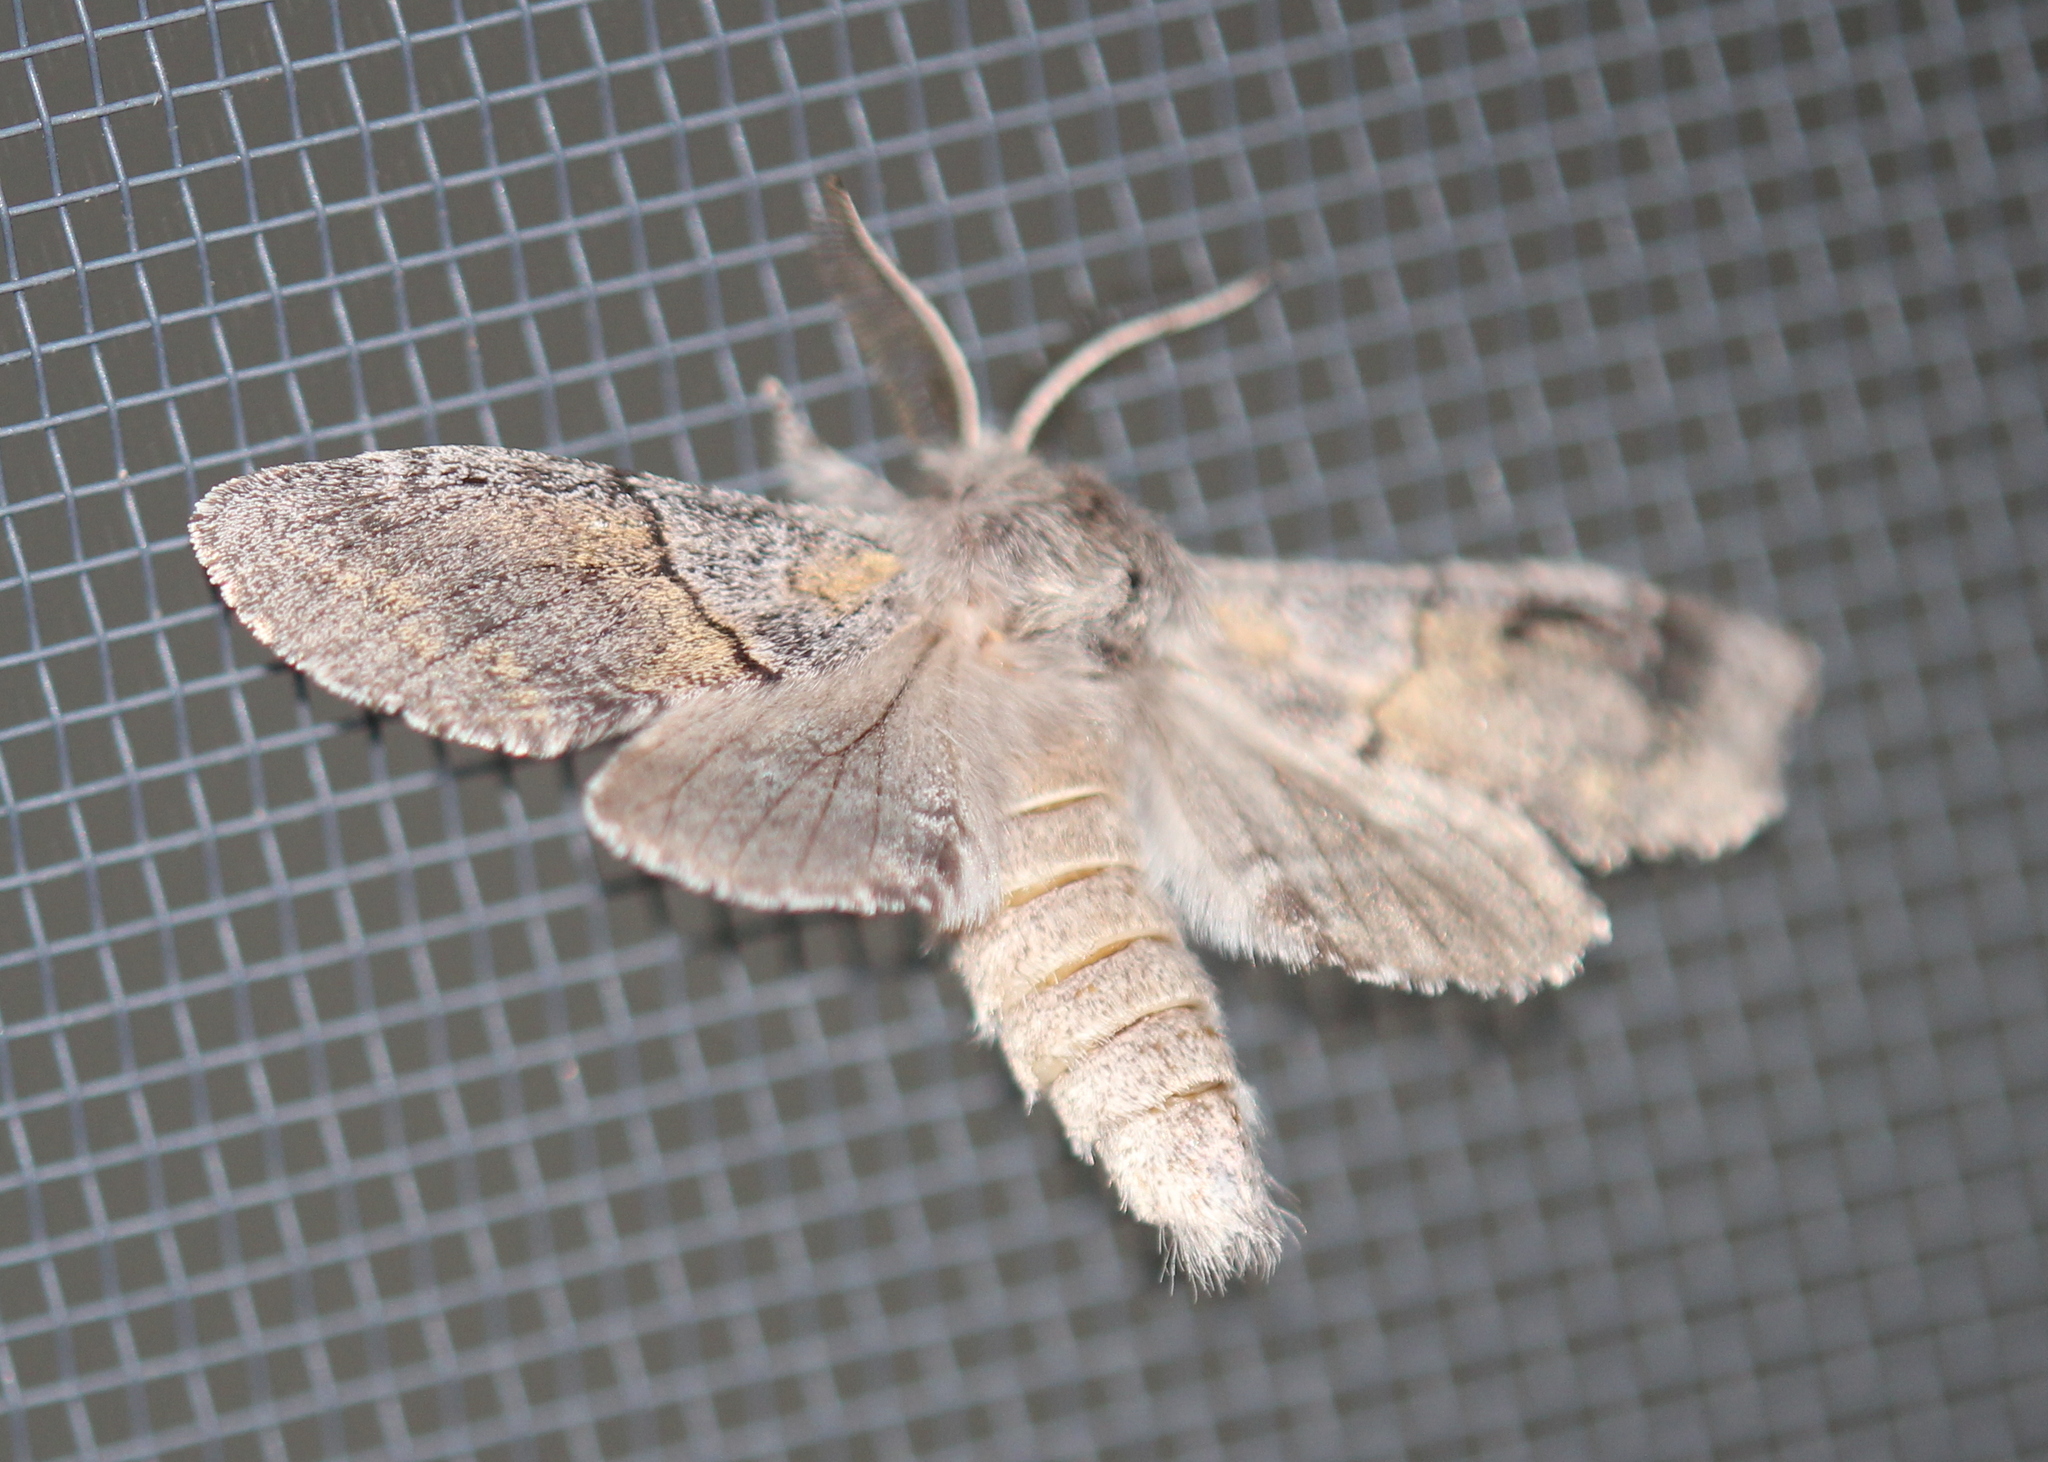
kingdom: Animalia
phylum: Arthropoda
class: Insecta
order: Lepidoptera
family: Notodontidae
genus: Gluphisia
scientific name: Gluphisia lintneri
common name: Lintner's gluphisia moth
